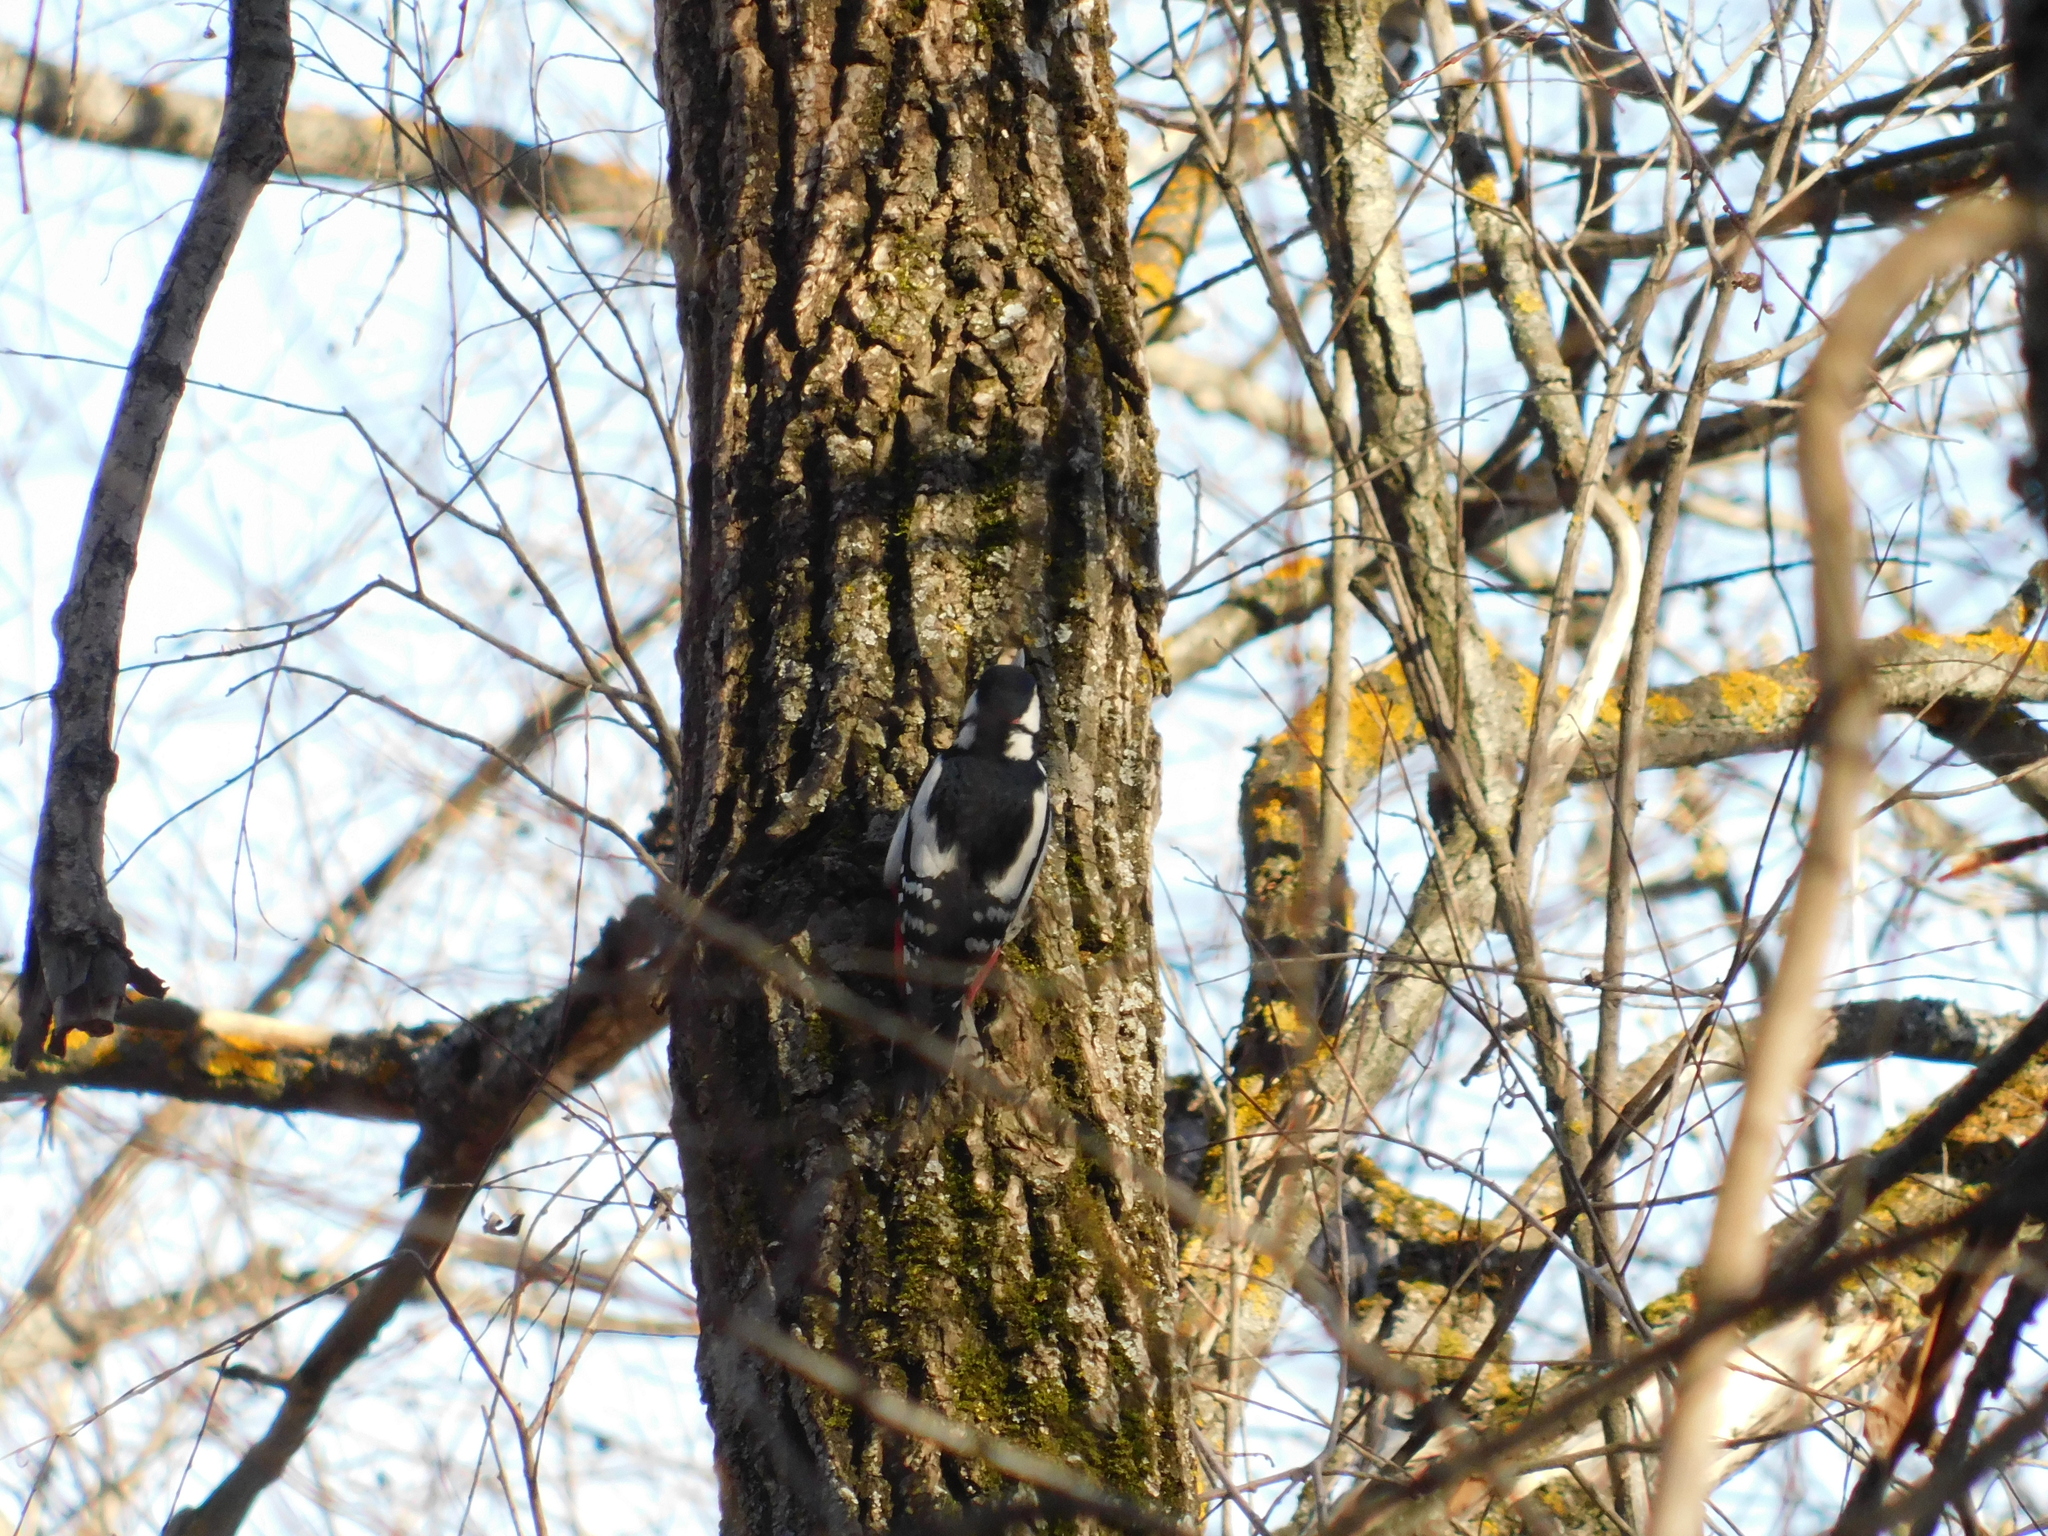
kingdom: Animalia
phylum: Chordata
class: Aves
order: Piciformes
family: Picidae
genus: Dendrocopos
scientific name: Dendrocopos major
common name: Great spotted woodpecker
